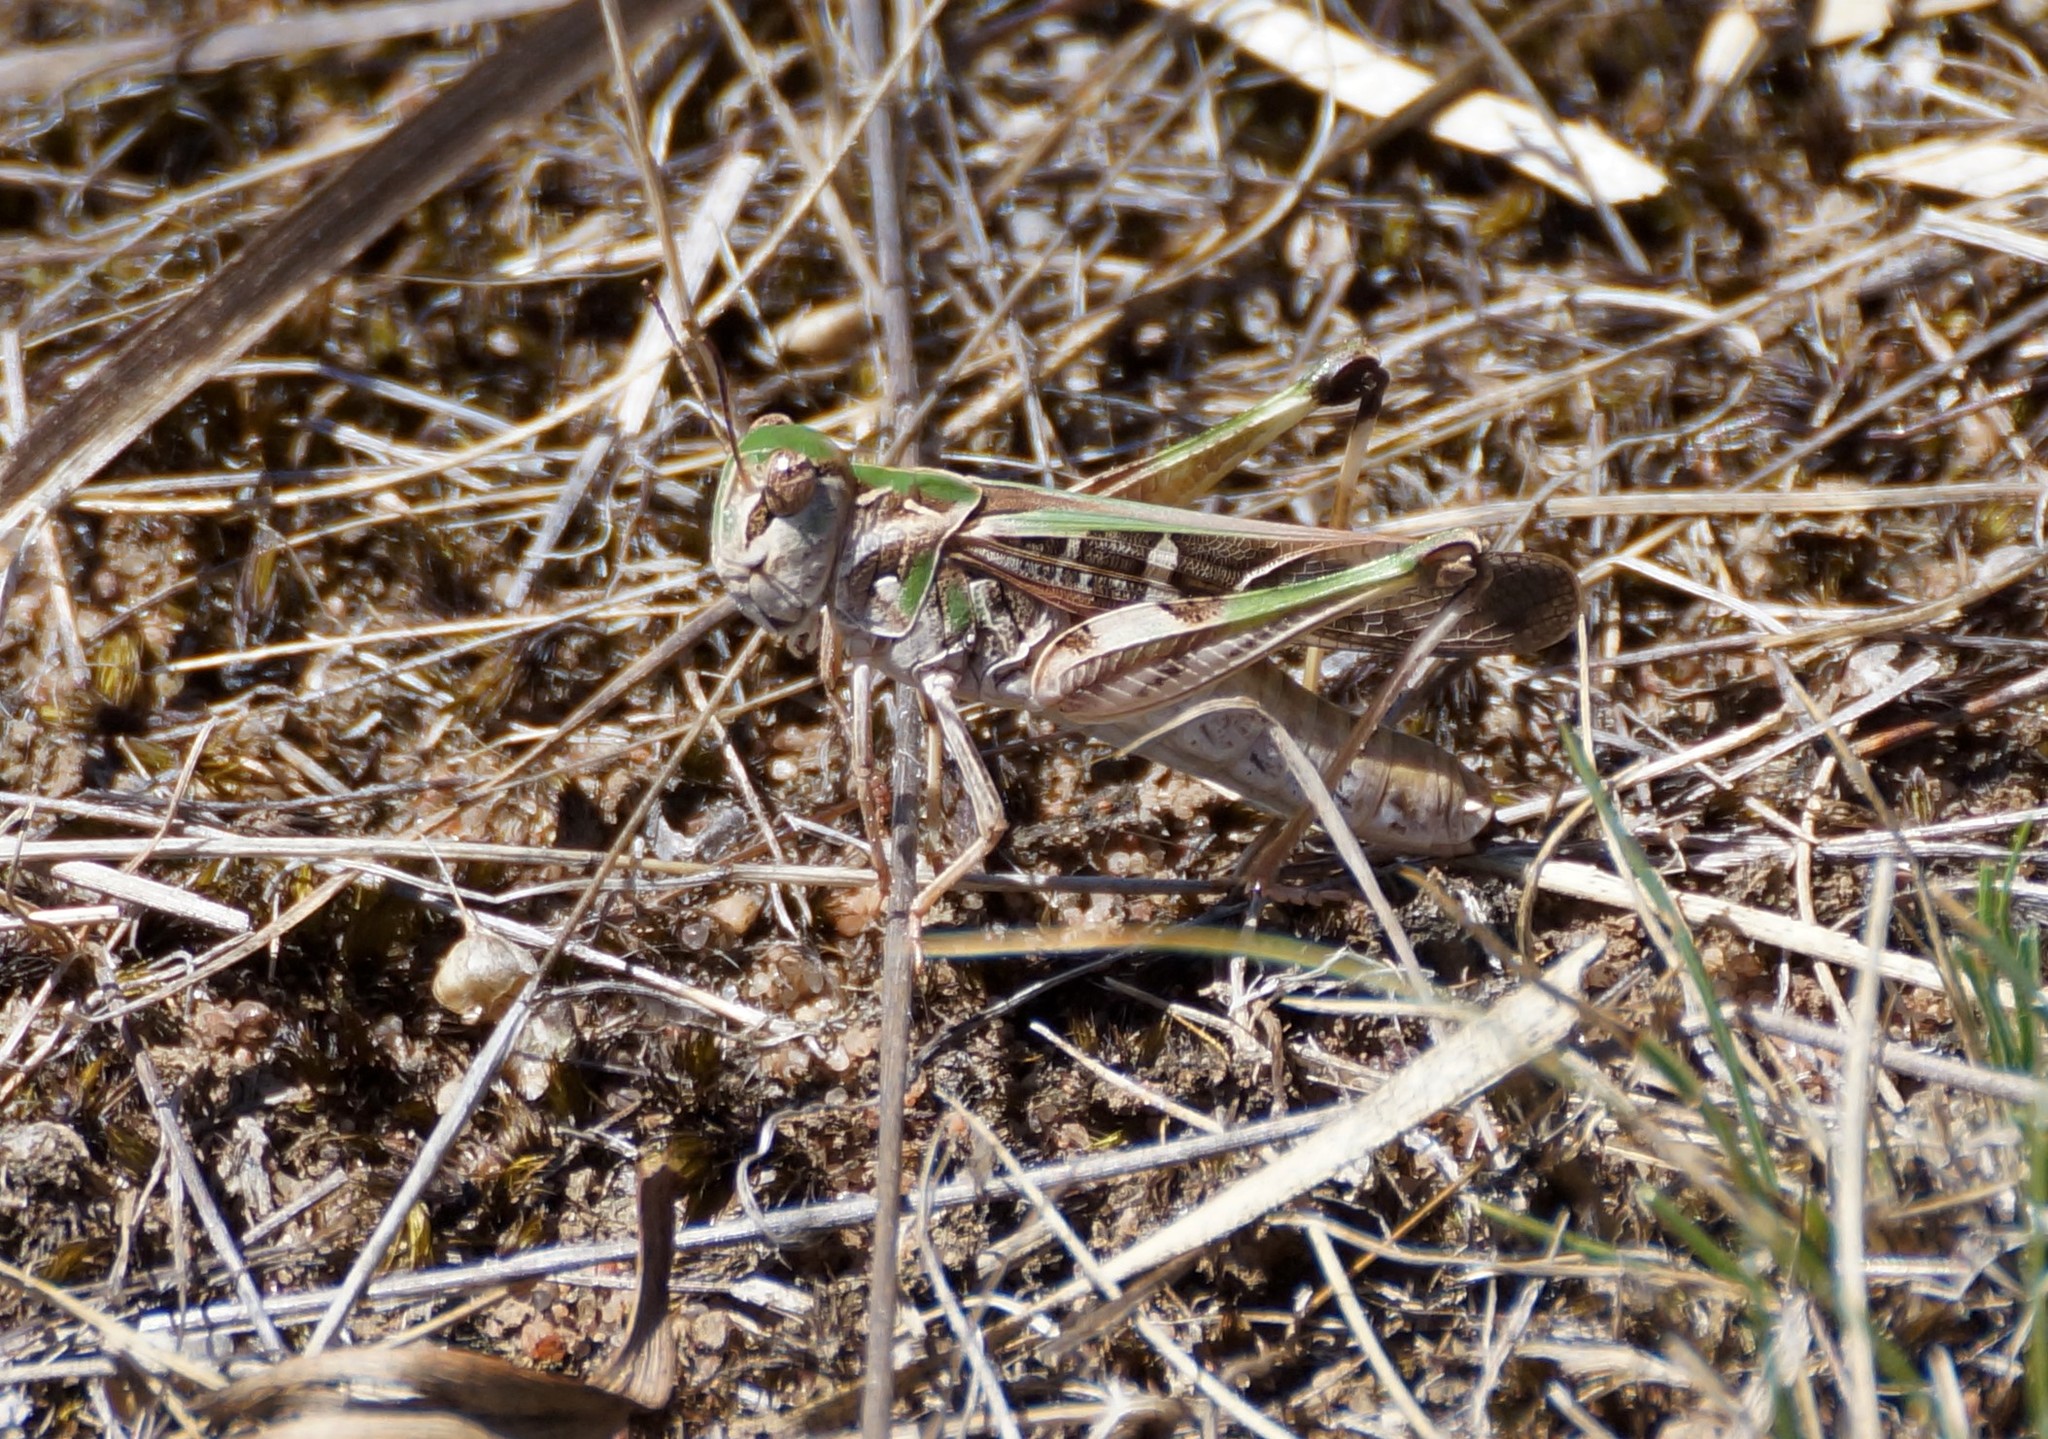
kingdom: Animalia
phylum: Arthropoda
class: Insecta
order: Orthoptera
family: Acrididae
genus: Oedaleus
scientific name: Oedaleus australis
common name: Eastern oedaleus
